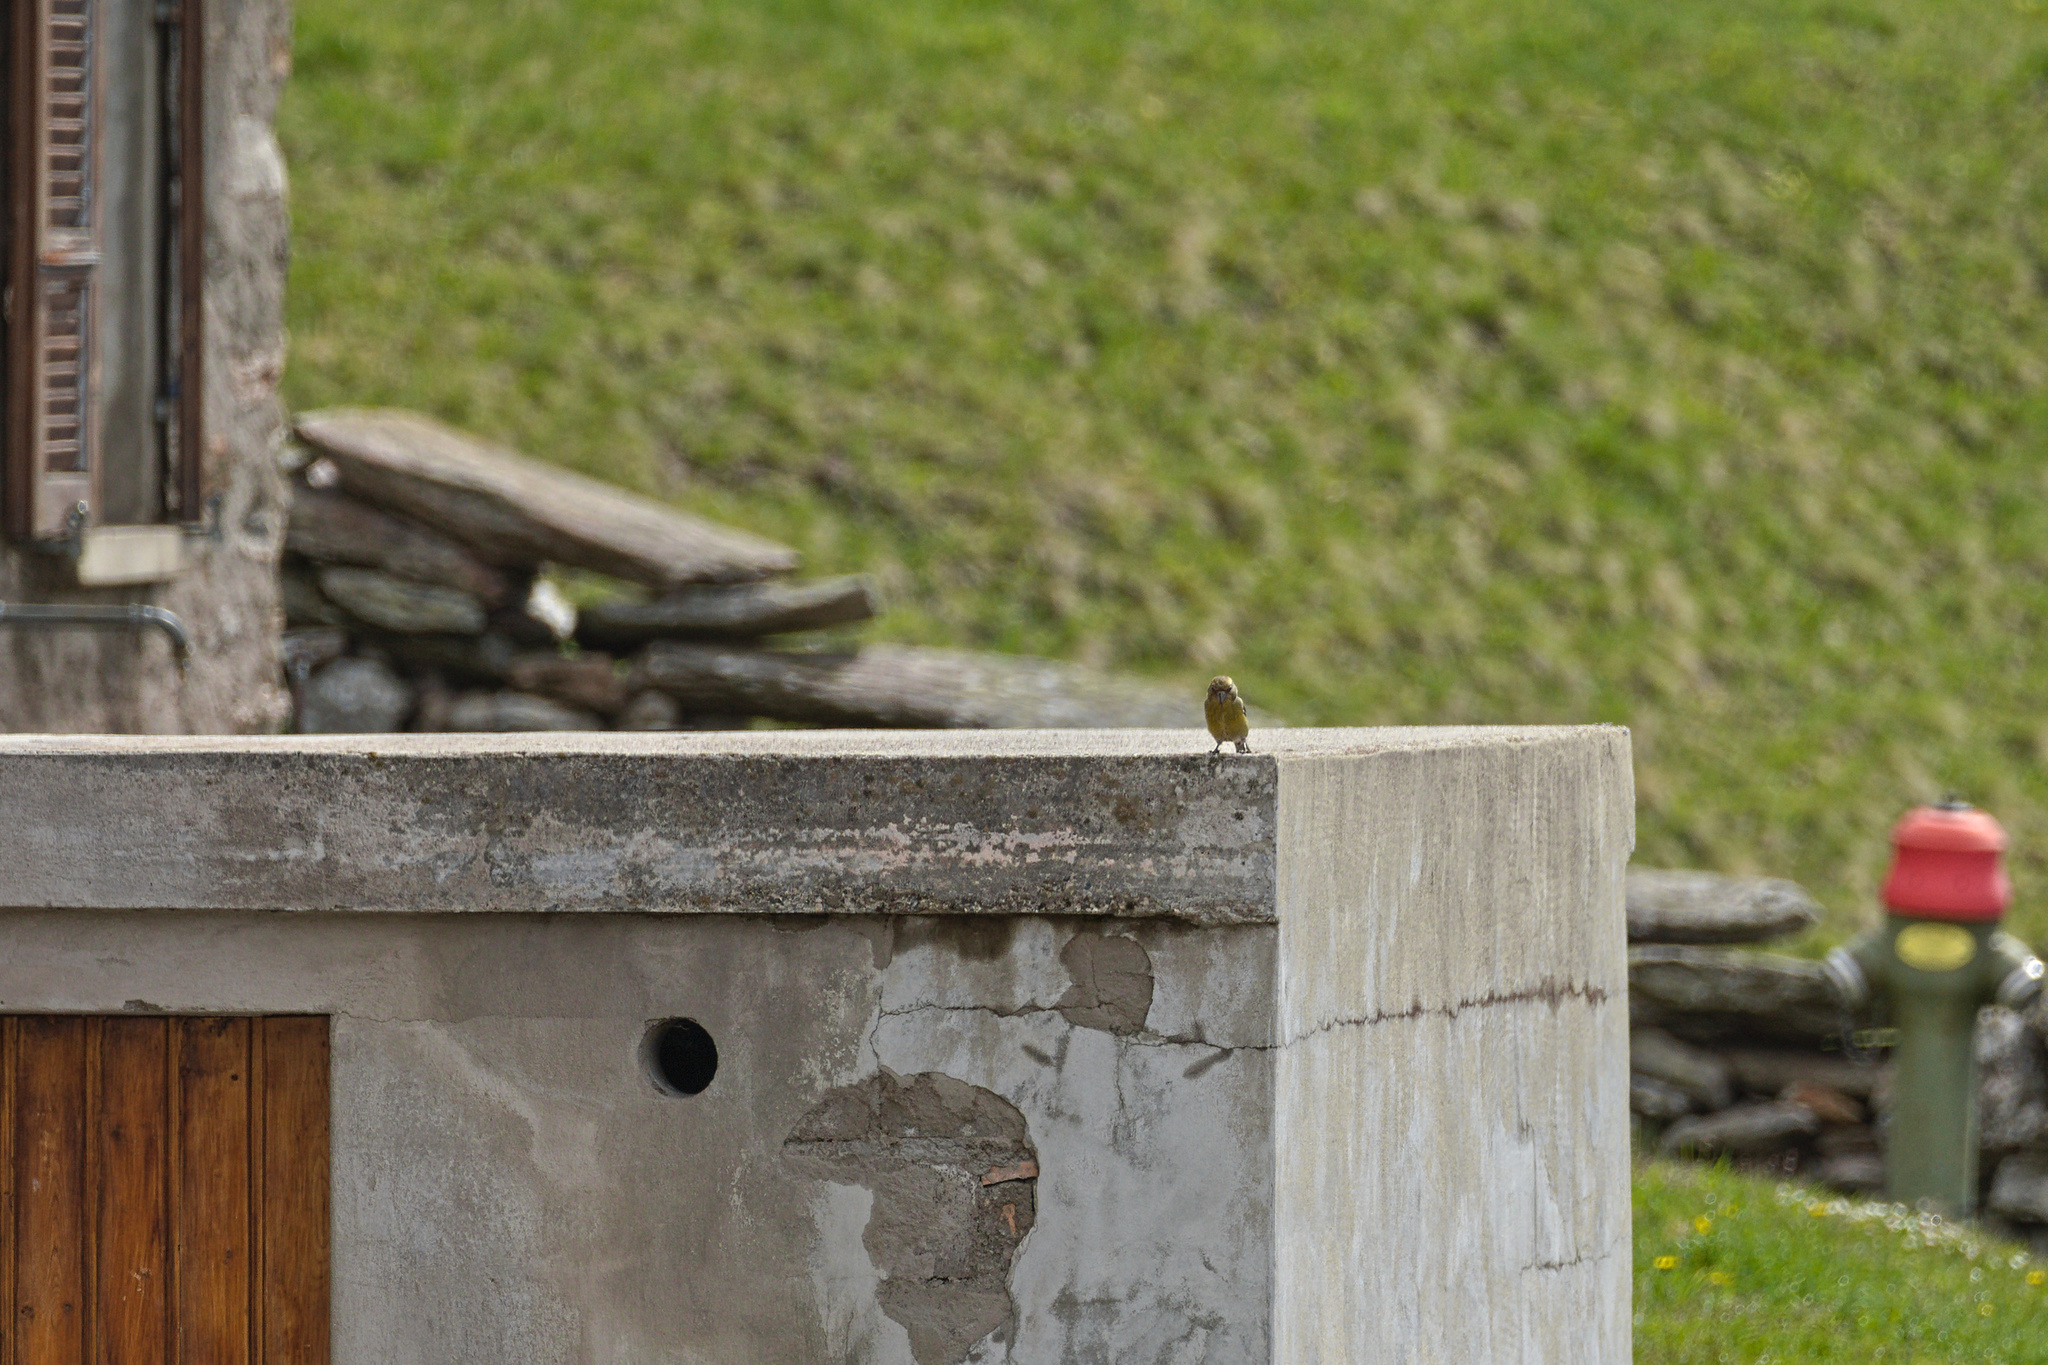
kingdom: Animalia
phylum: Chordata
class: Aves
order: Passeriformes
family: Fringillidae
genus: Loxia
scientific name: Loxia curvirostra
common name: Red crossbill
